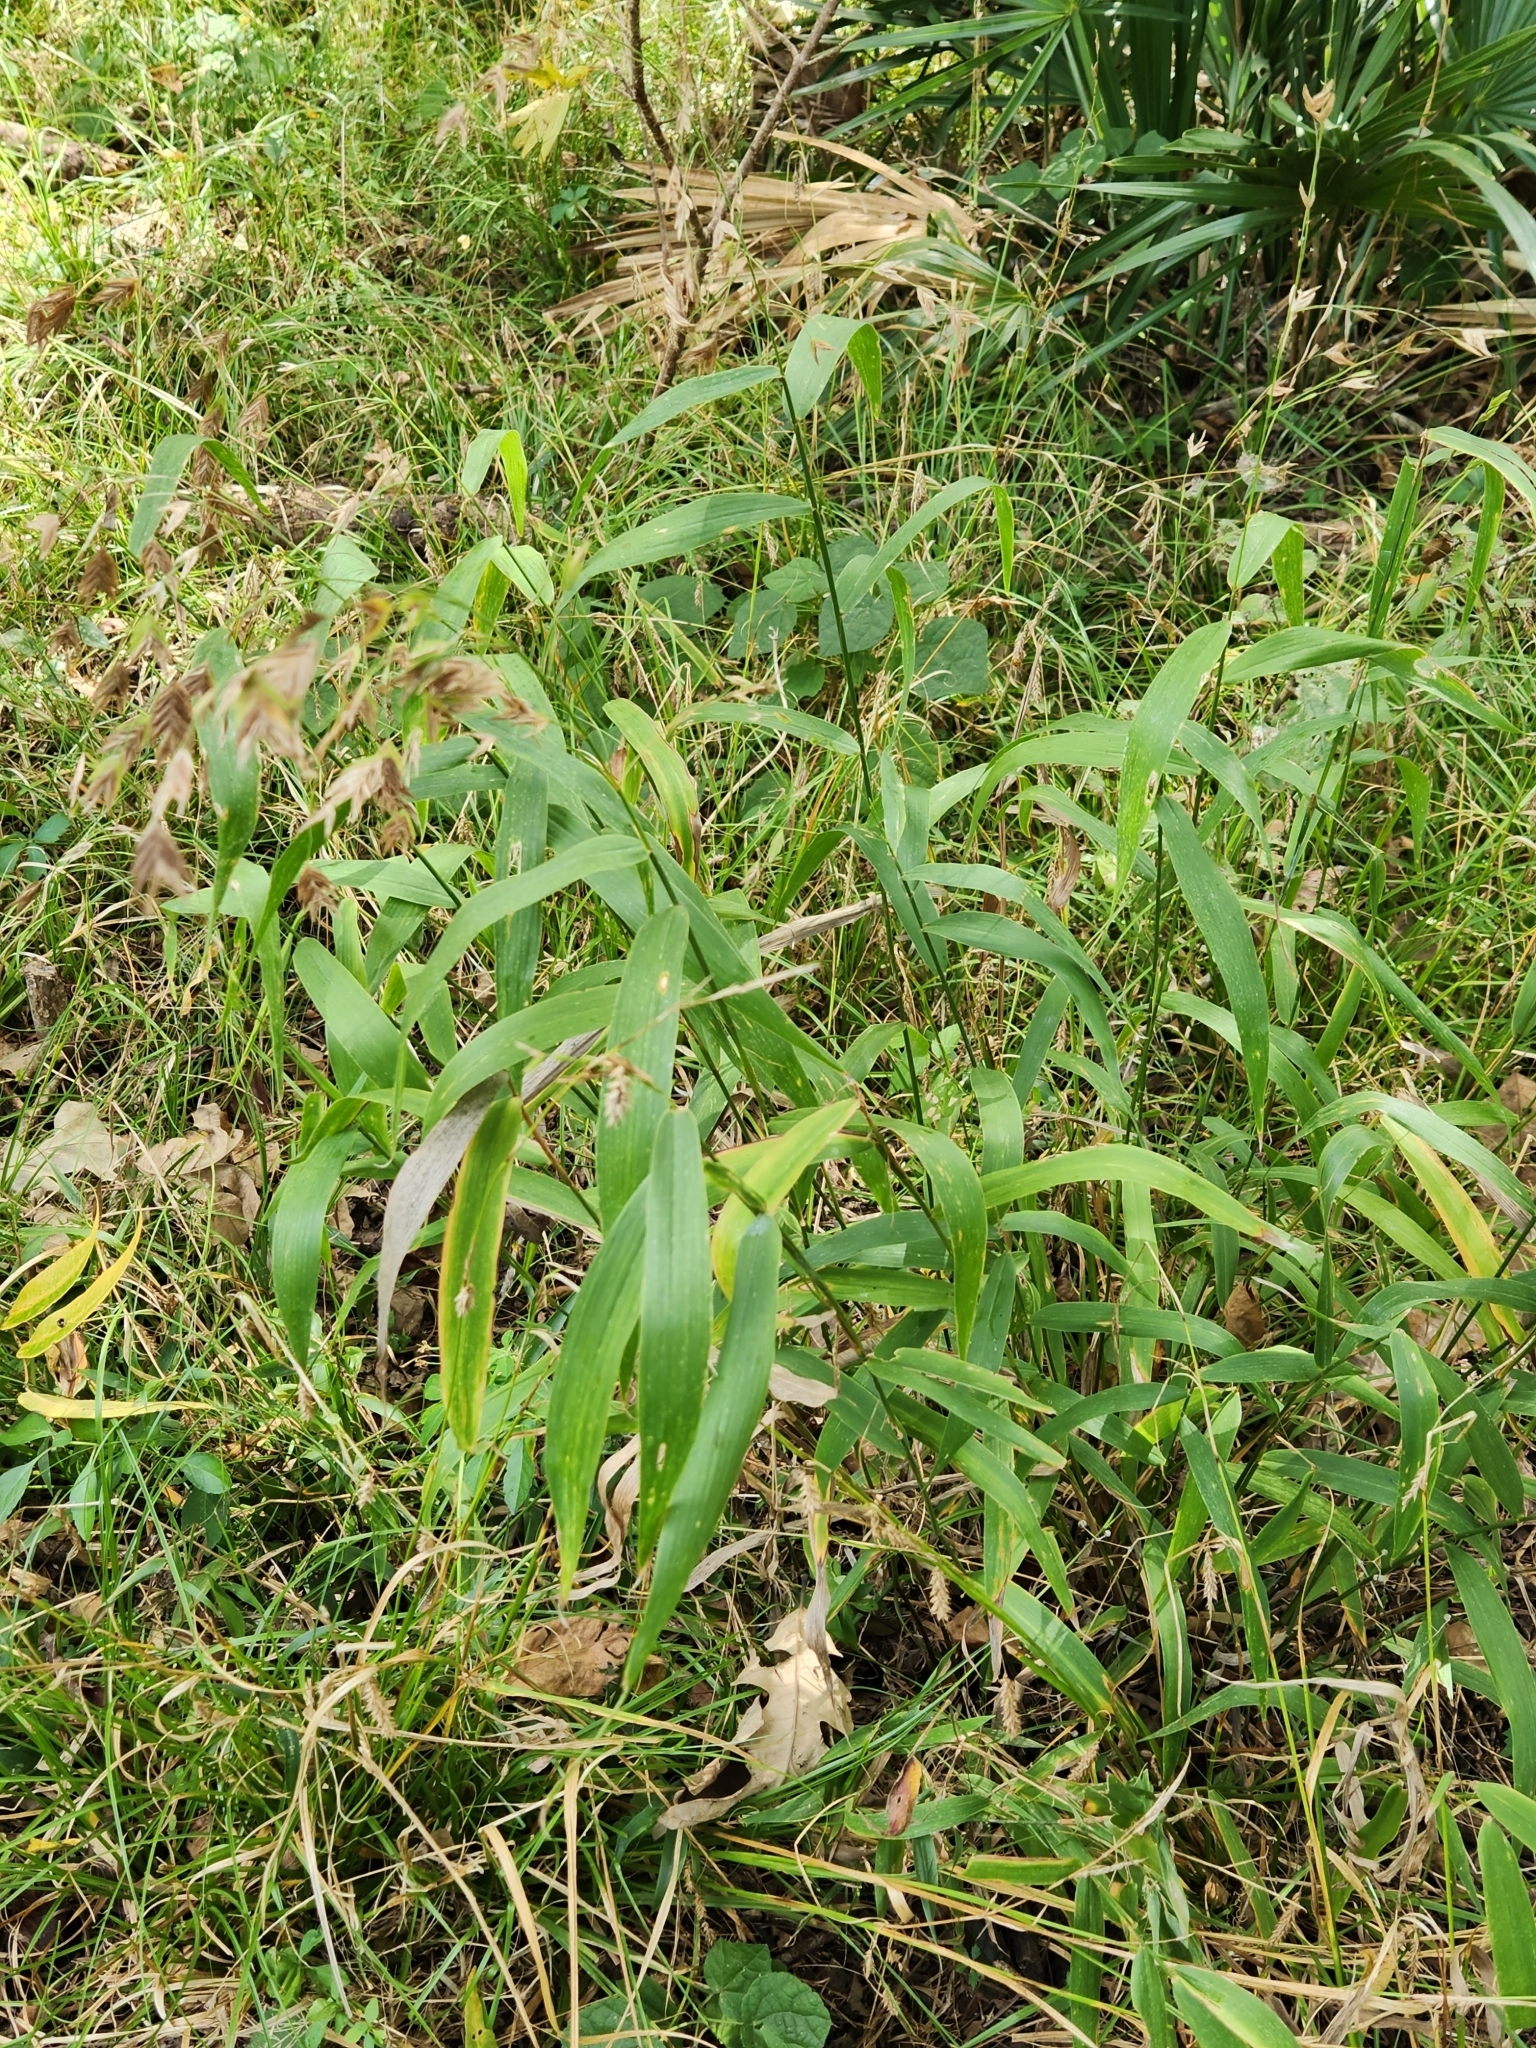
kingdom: Plantae
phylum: Tracheophyta
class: Liliopsida
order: Poales
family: Poaceae
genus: Chasmanthium
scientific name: Chasmanthium latifolium
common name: Broad-leaved chasmanthium
